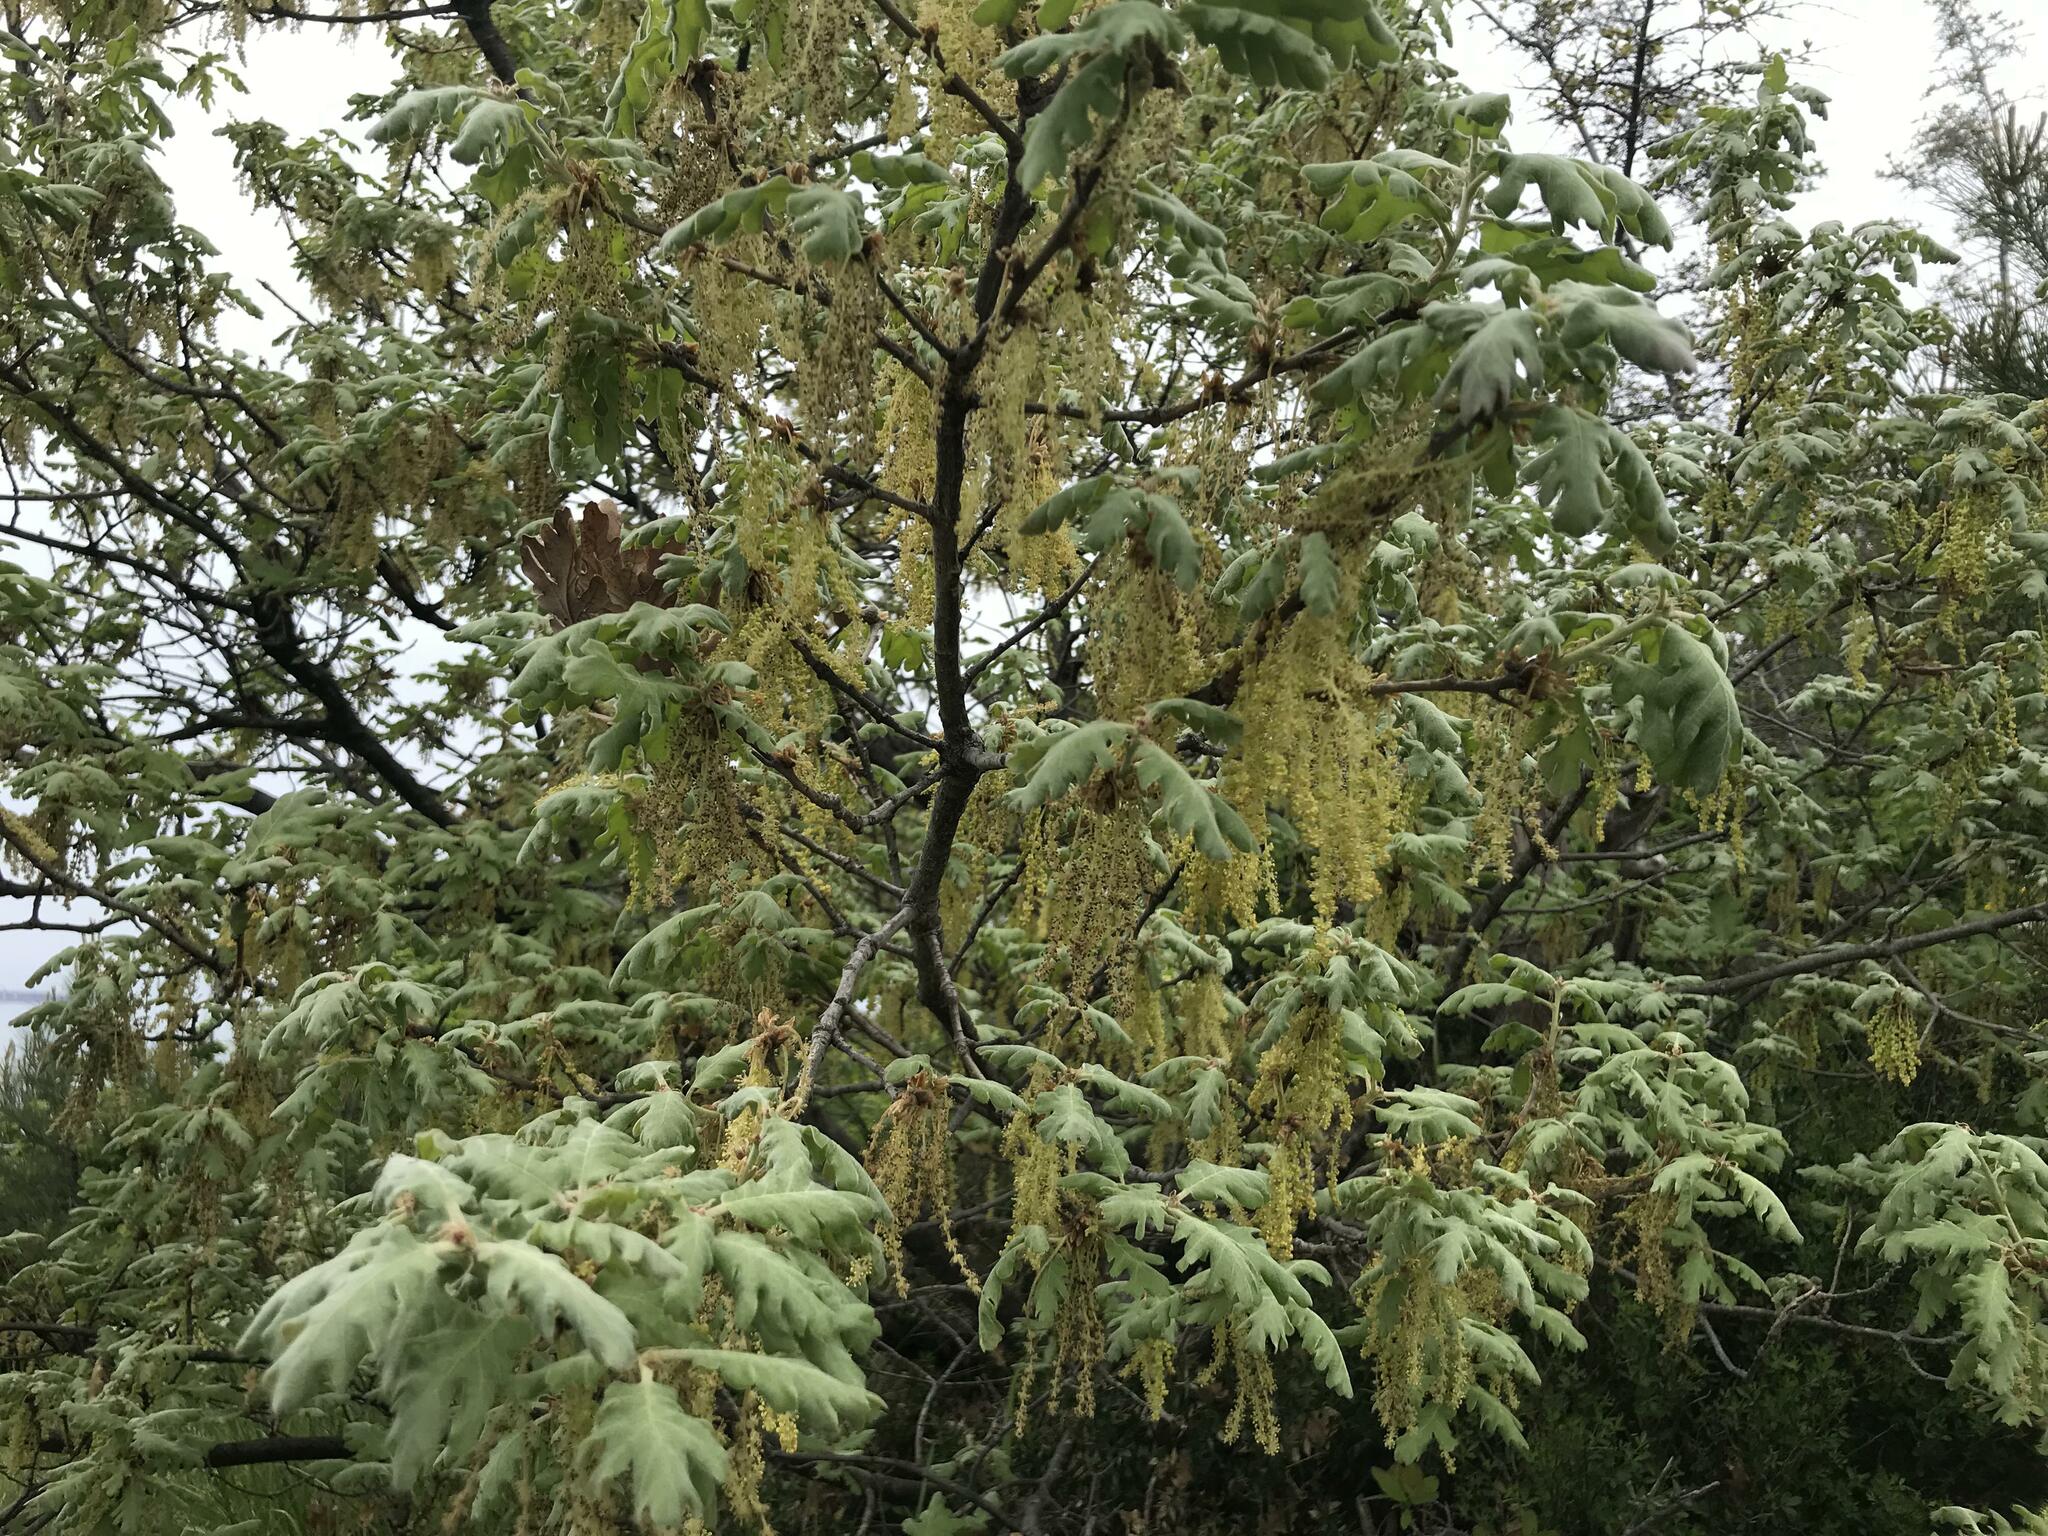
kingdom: Plantae
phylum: Tracheophyta
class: Magnoliopsida
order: Fagales
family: Fagaceae
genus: Quercus
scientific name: Quercus pubescens
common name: Downy oak
